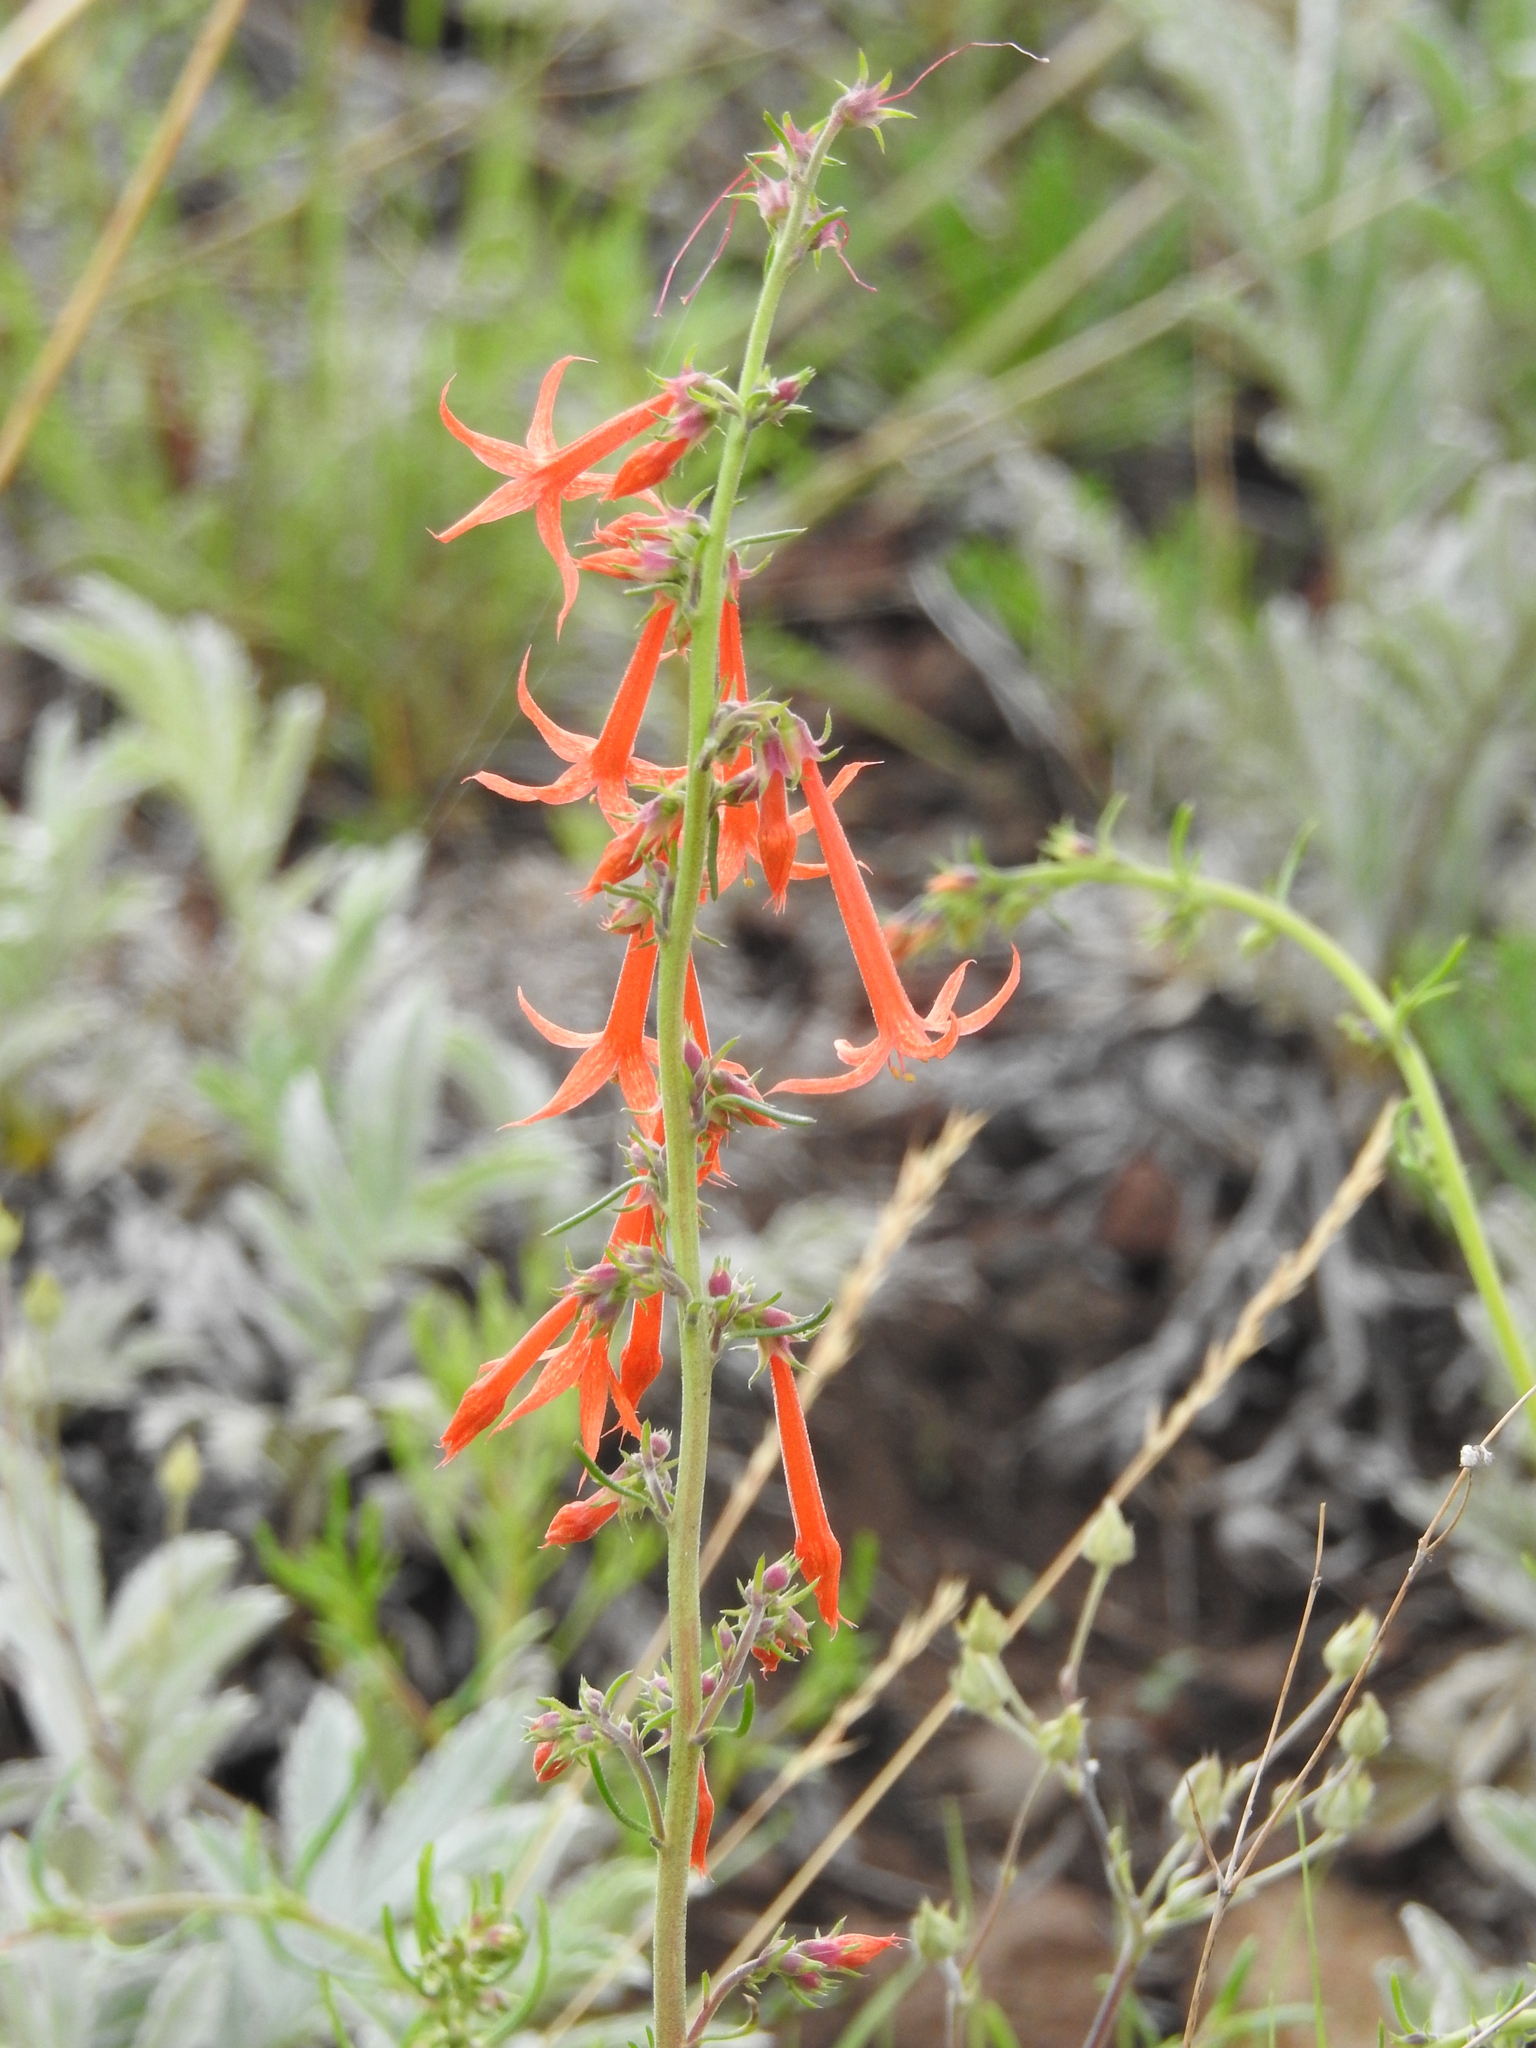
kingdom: Plantae
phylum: Tracheophyta
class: Magnoliopsida
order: Ericales
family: Polemoniaceae
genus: Ipomopsis
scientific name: Ipomopsis aggregata
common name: Scarlet gilia
